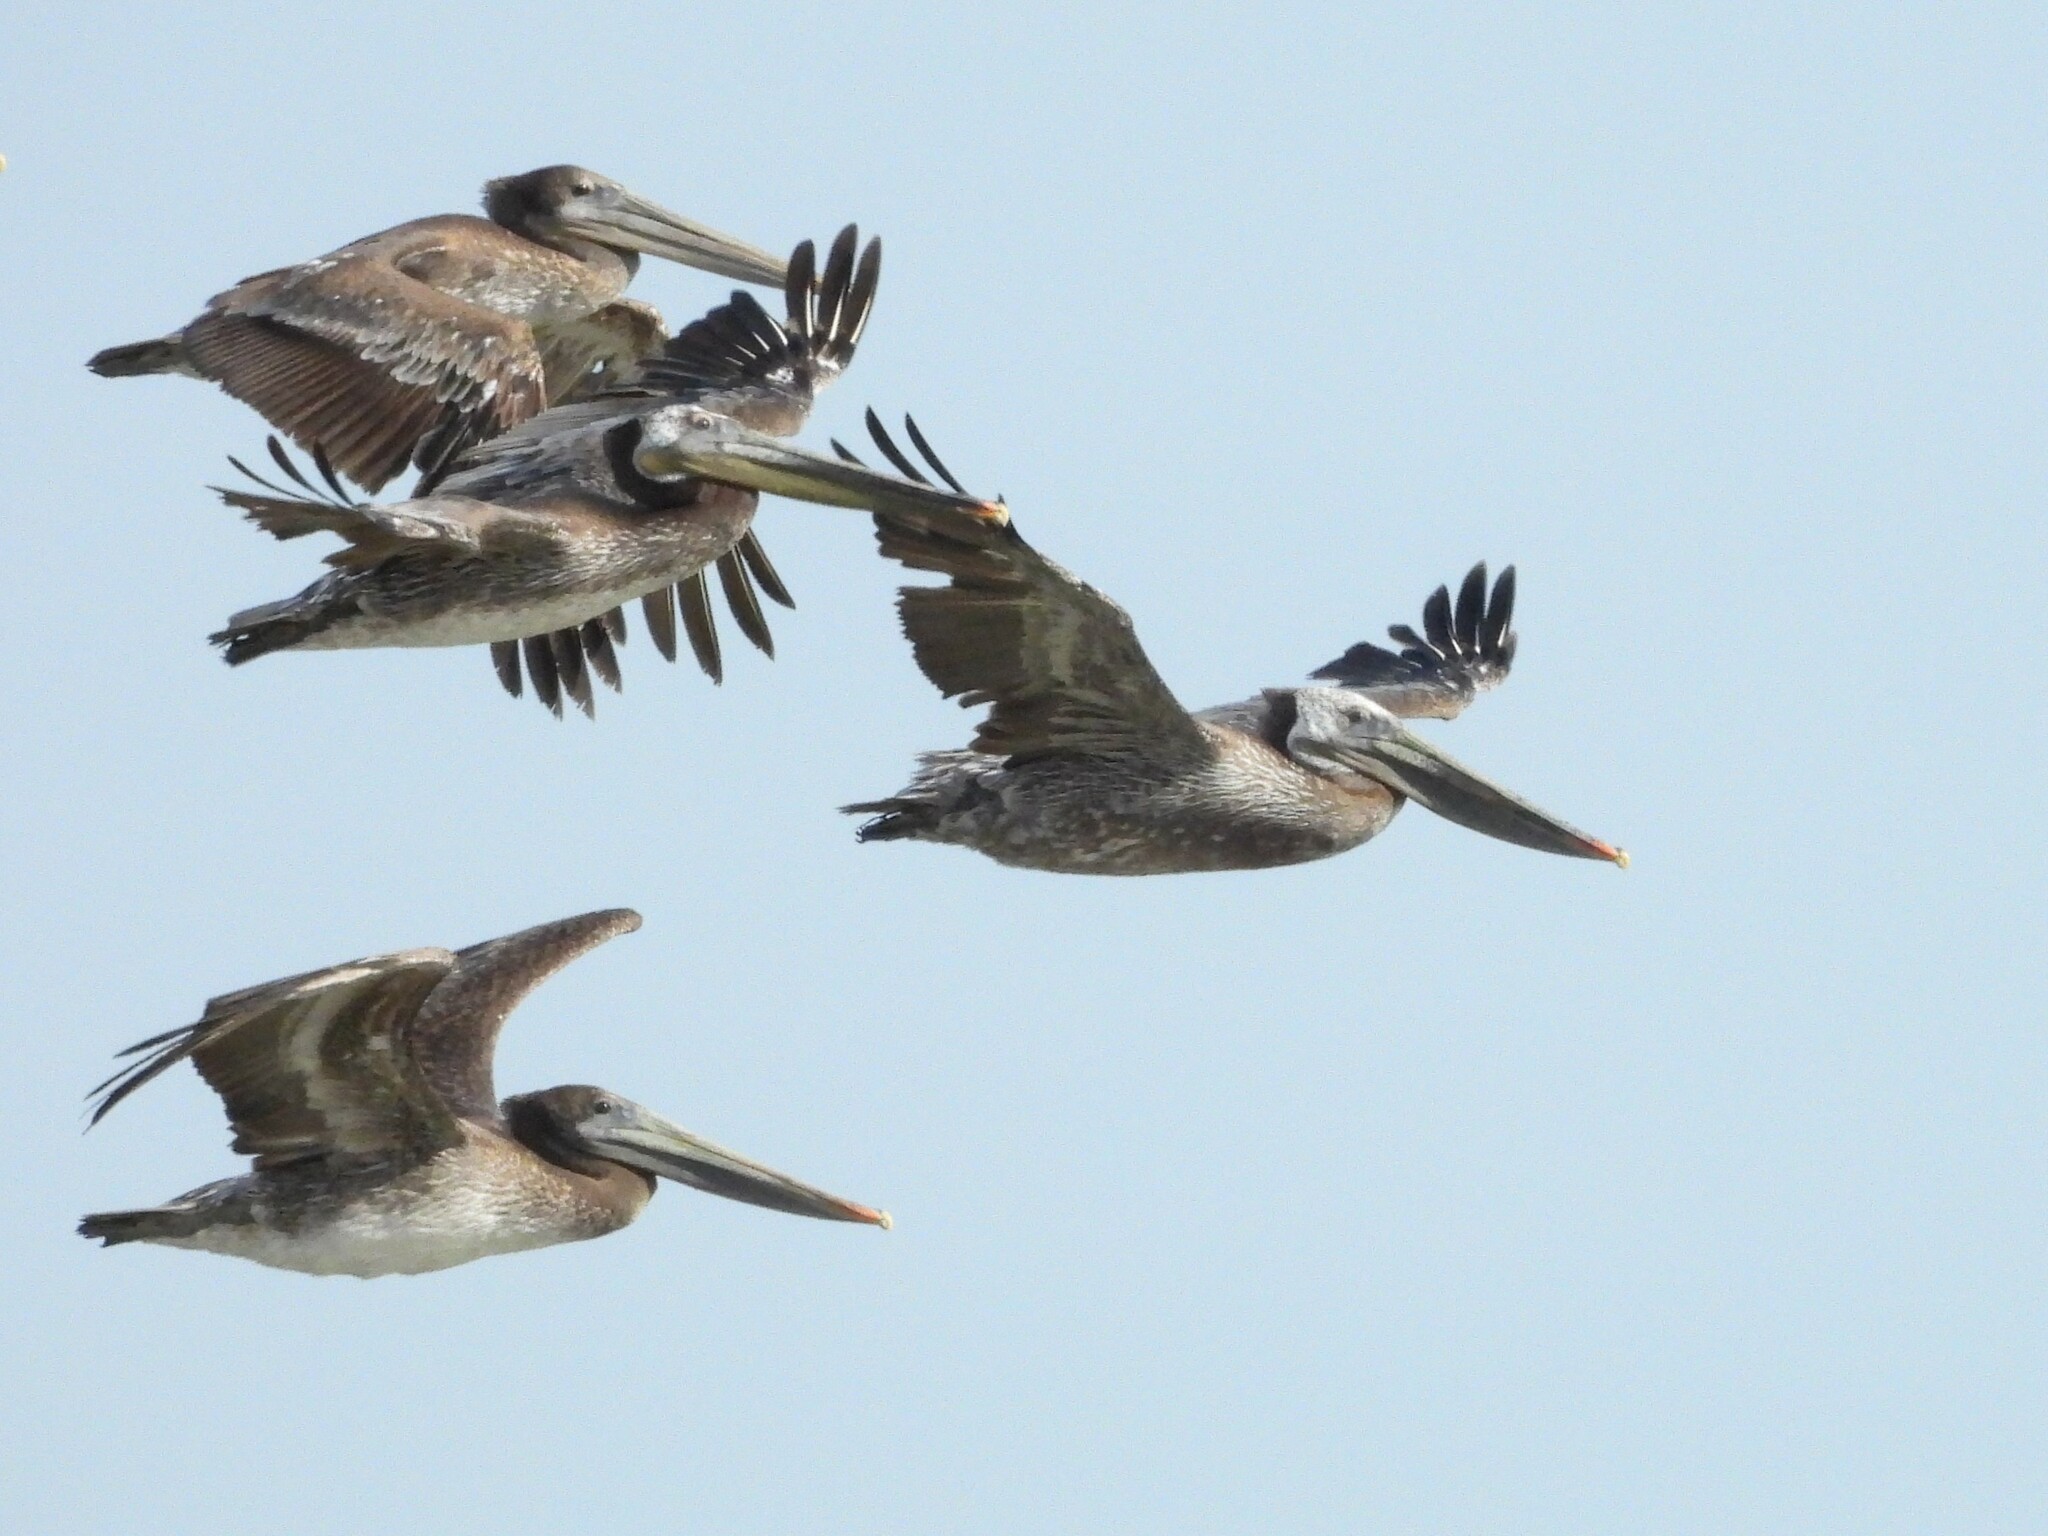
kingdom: Animalia
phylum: Chordata
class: Aves
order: Pelecaniformes
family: Pelecanidae
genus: Pelecanus
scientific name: Pelecanus occidentalis
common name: Brown pelican
